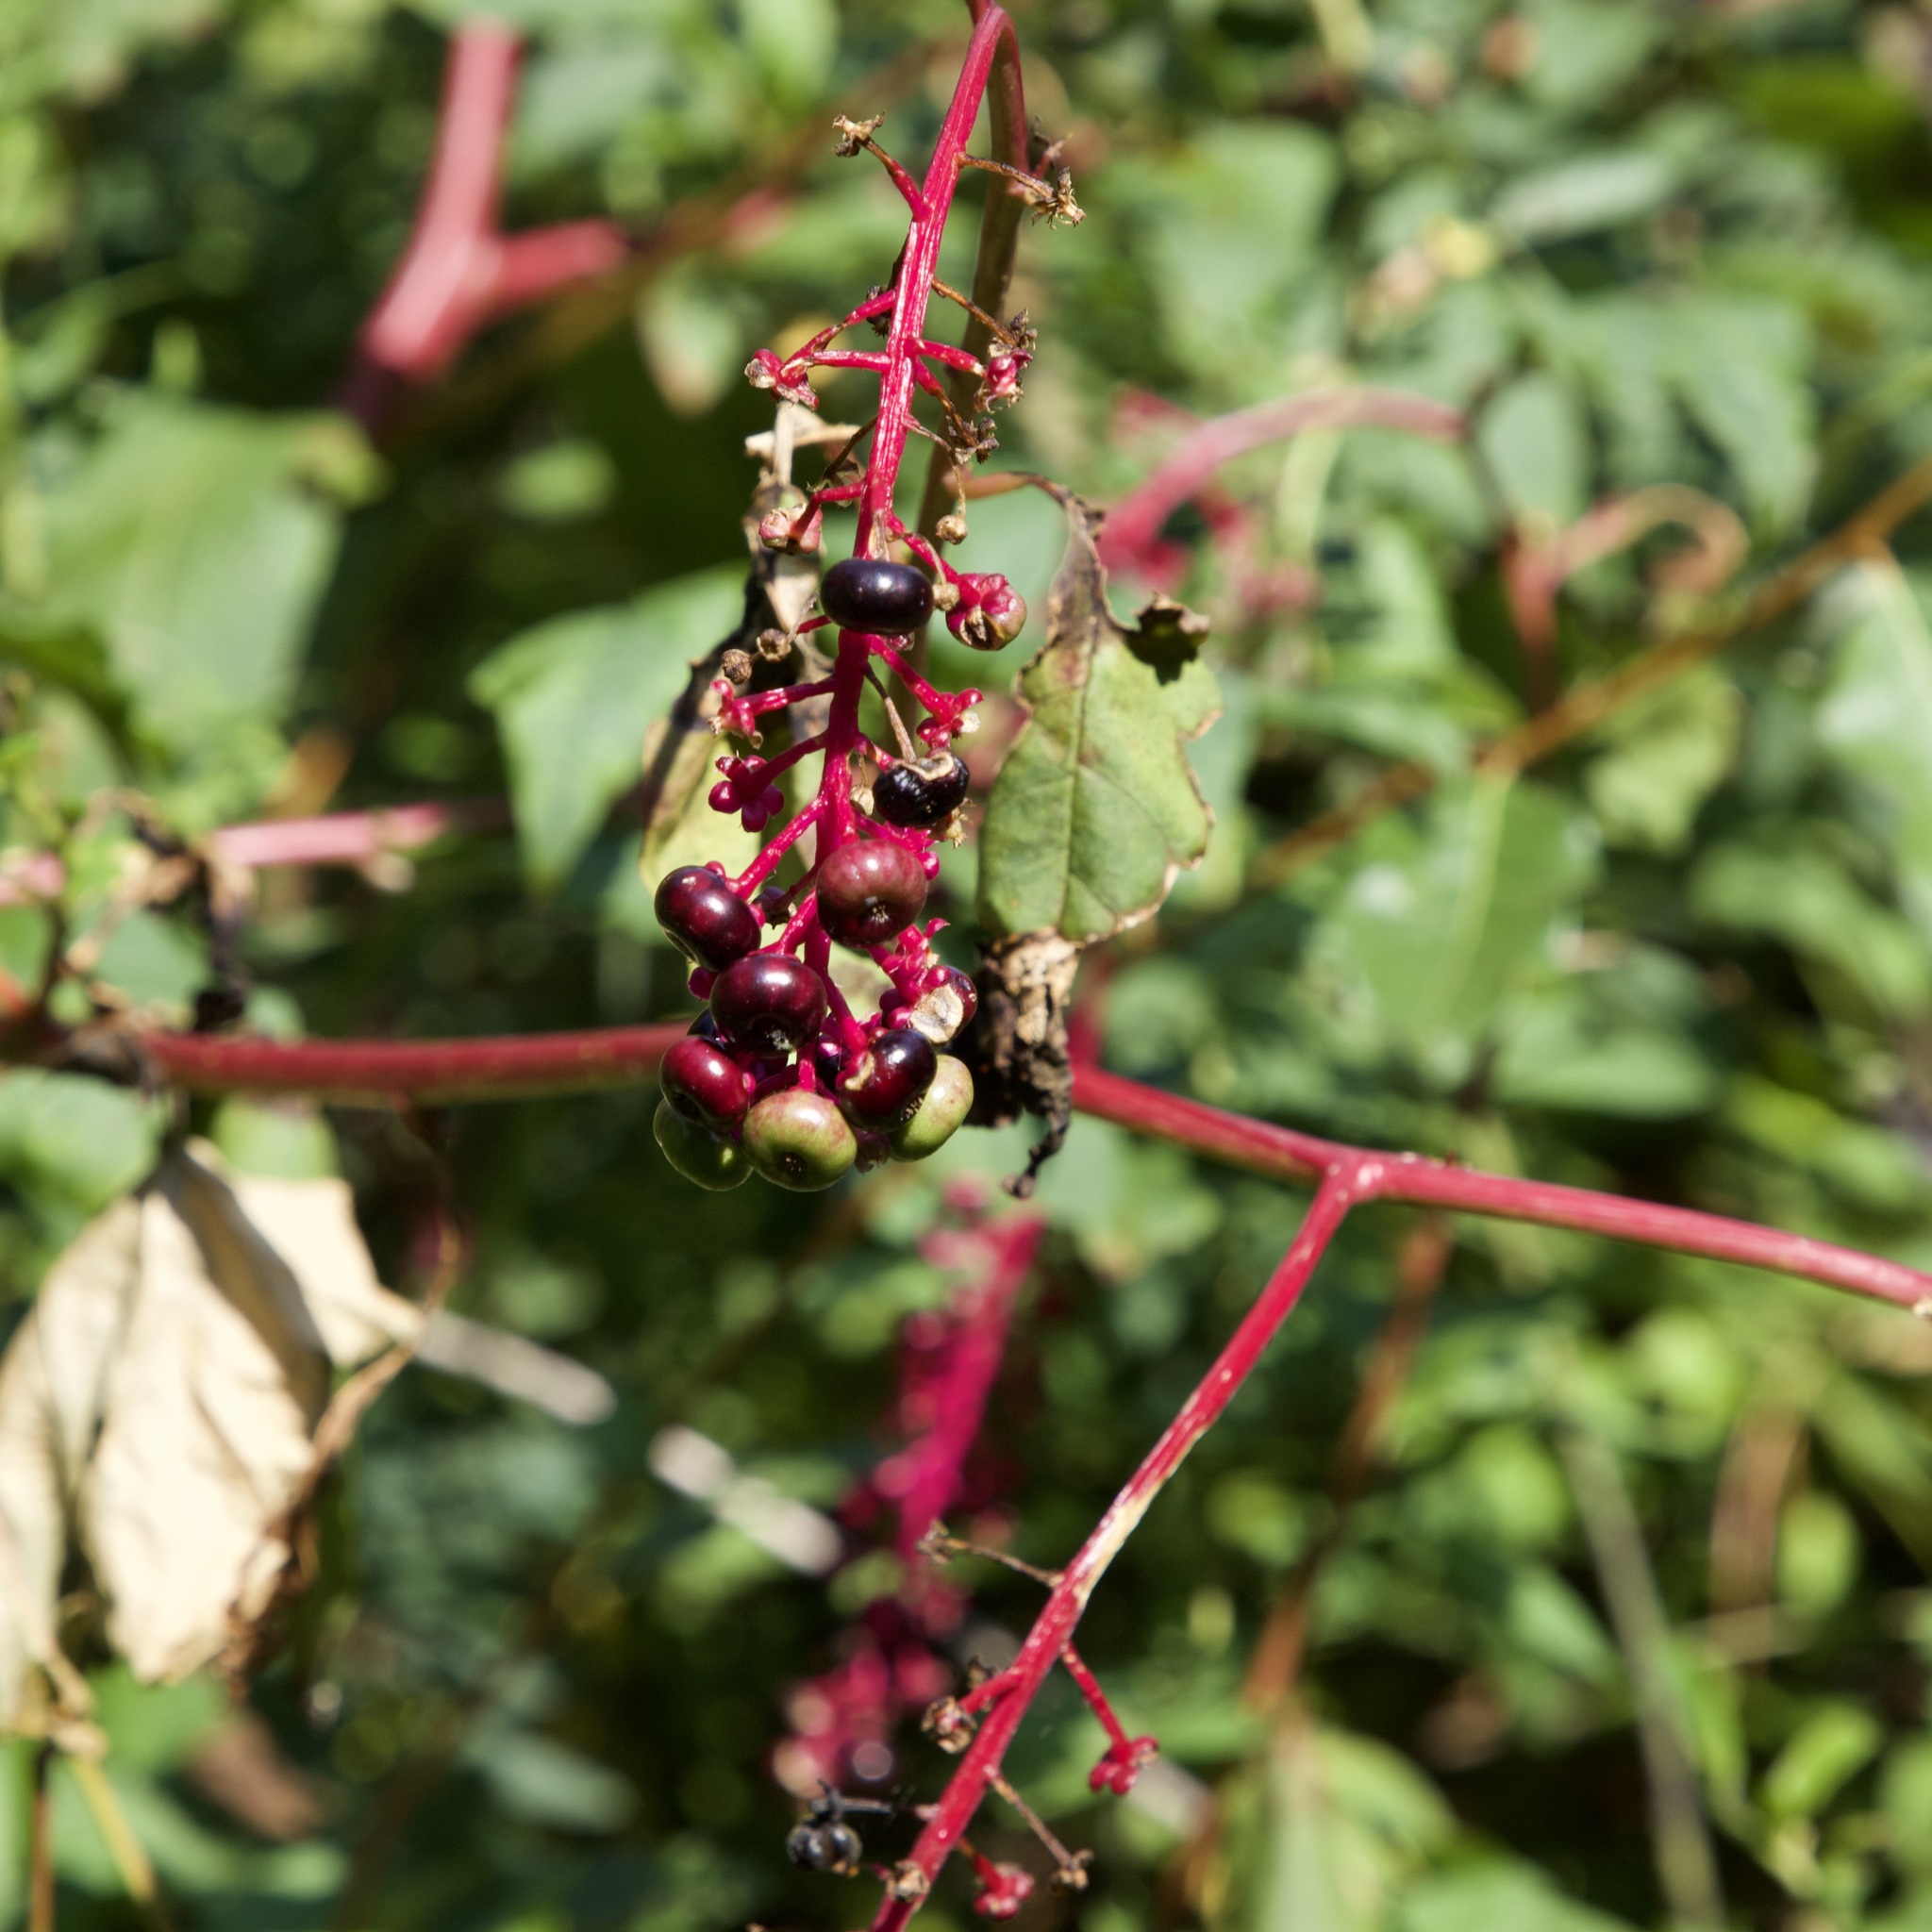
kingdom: Plantae
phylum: Tracheophyta
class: Magnoliopsida
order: Caryophyllales
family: Phytolaccaceae
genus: Phytolacca
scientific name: Phytolacca americana
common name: American pokeweed
